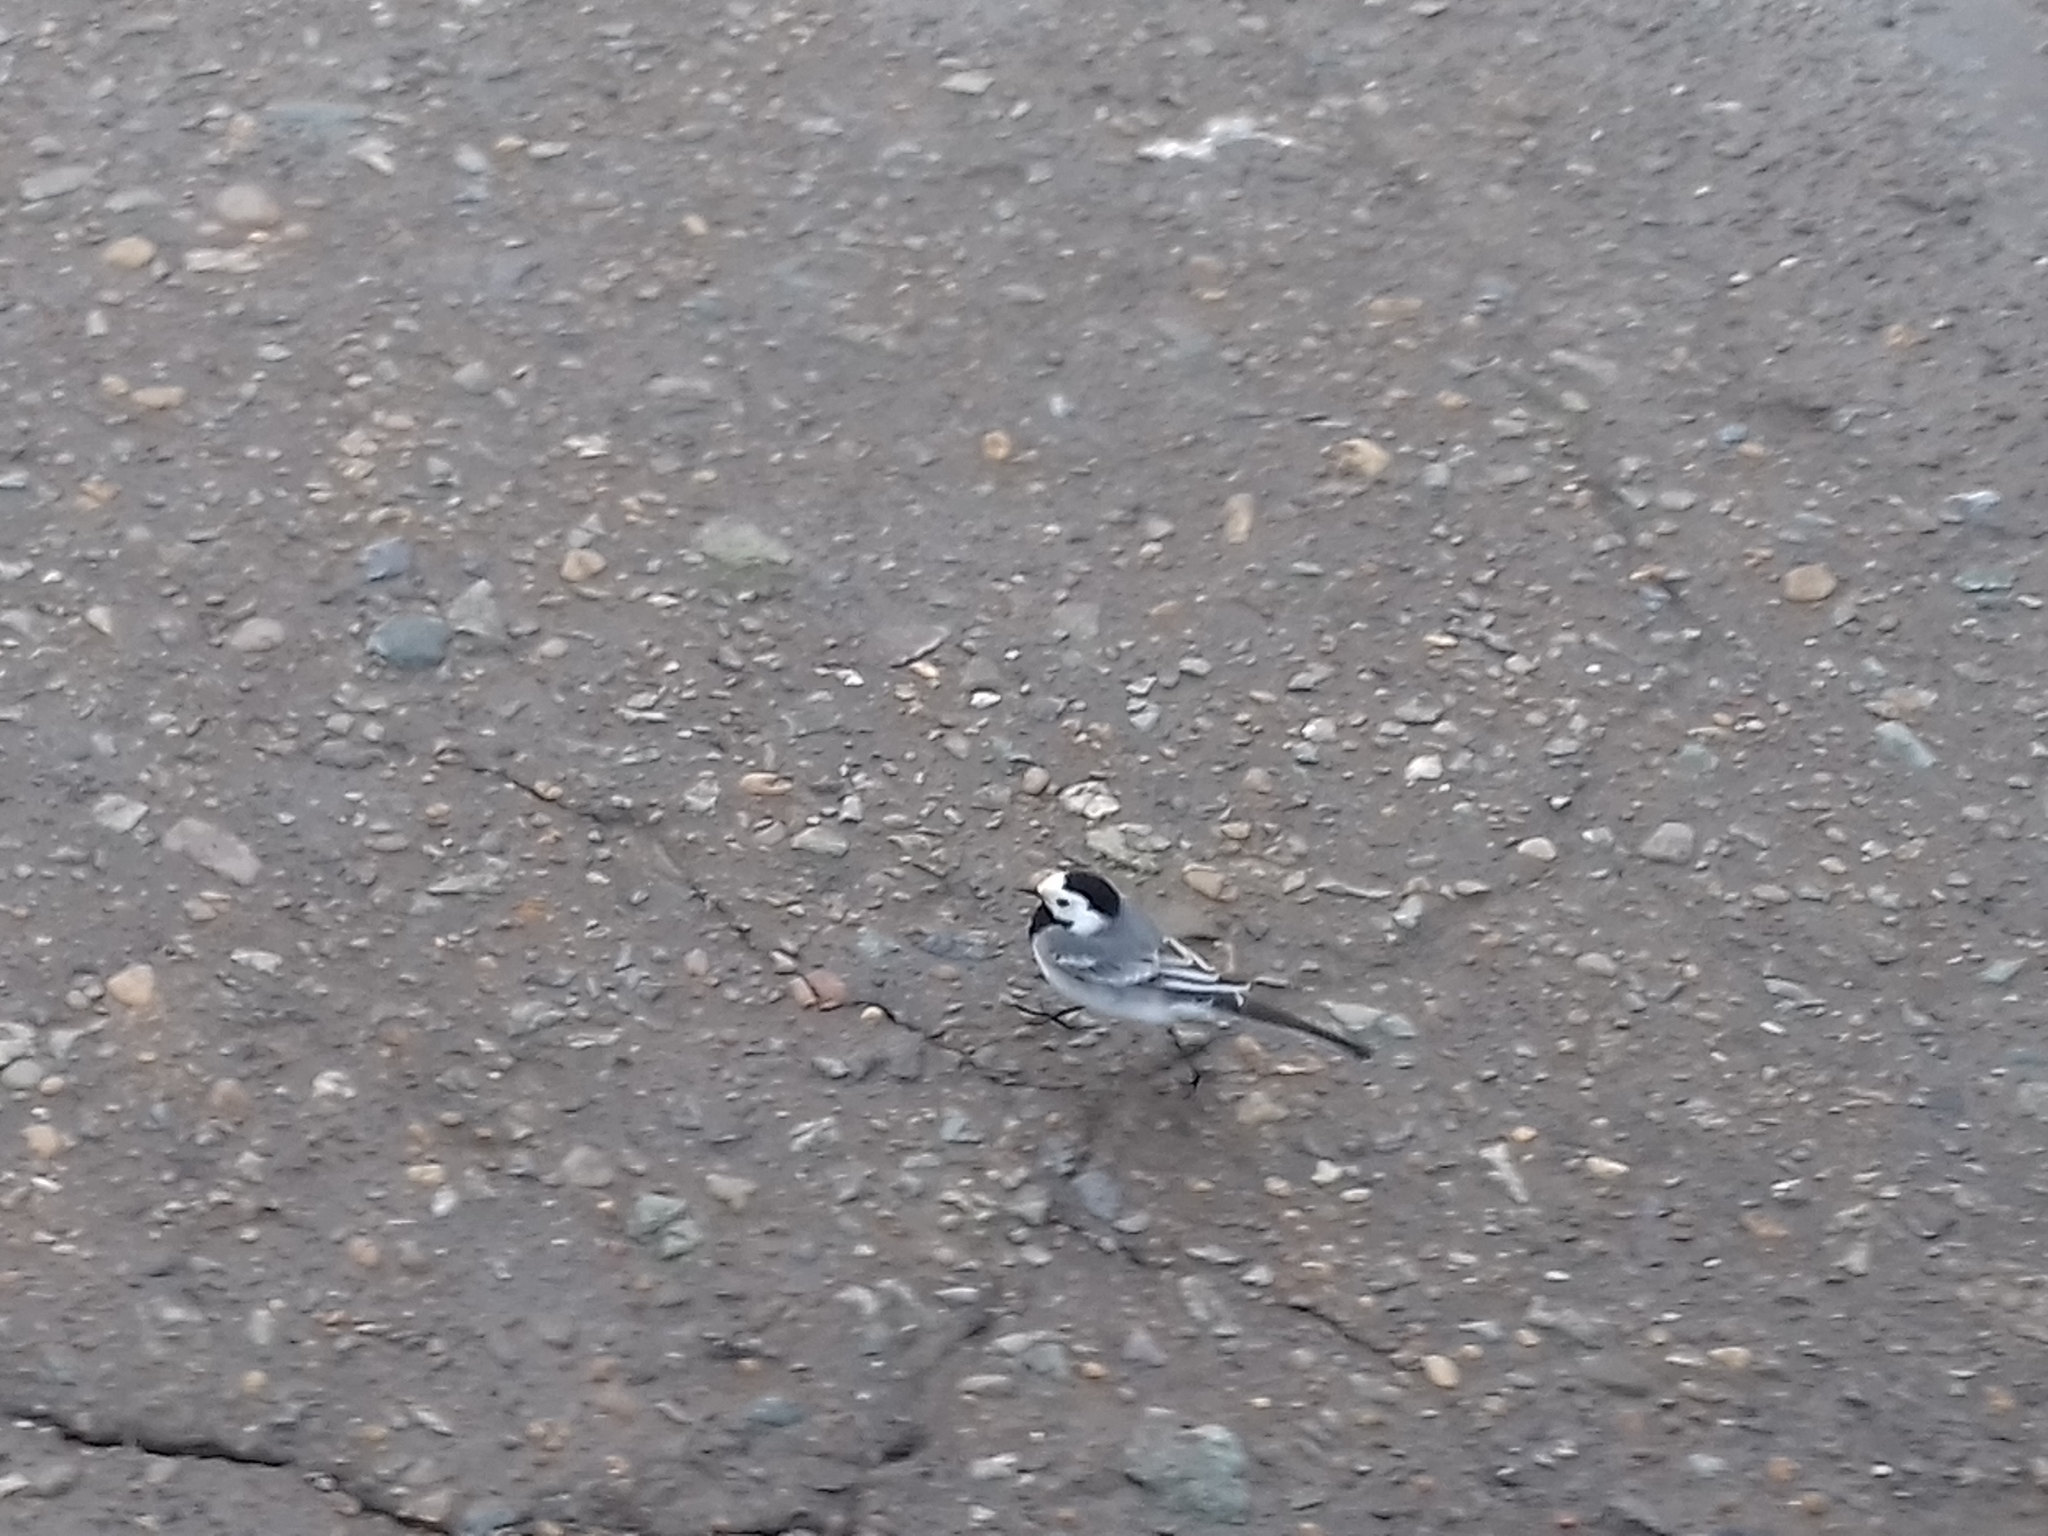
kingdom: Animalia
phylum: Chordata
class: Aves
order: Passeriformes
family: Motacillidae
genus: Motacilla
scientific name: Motacilla alba
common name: White wagtail
